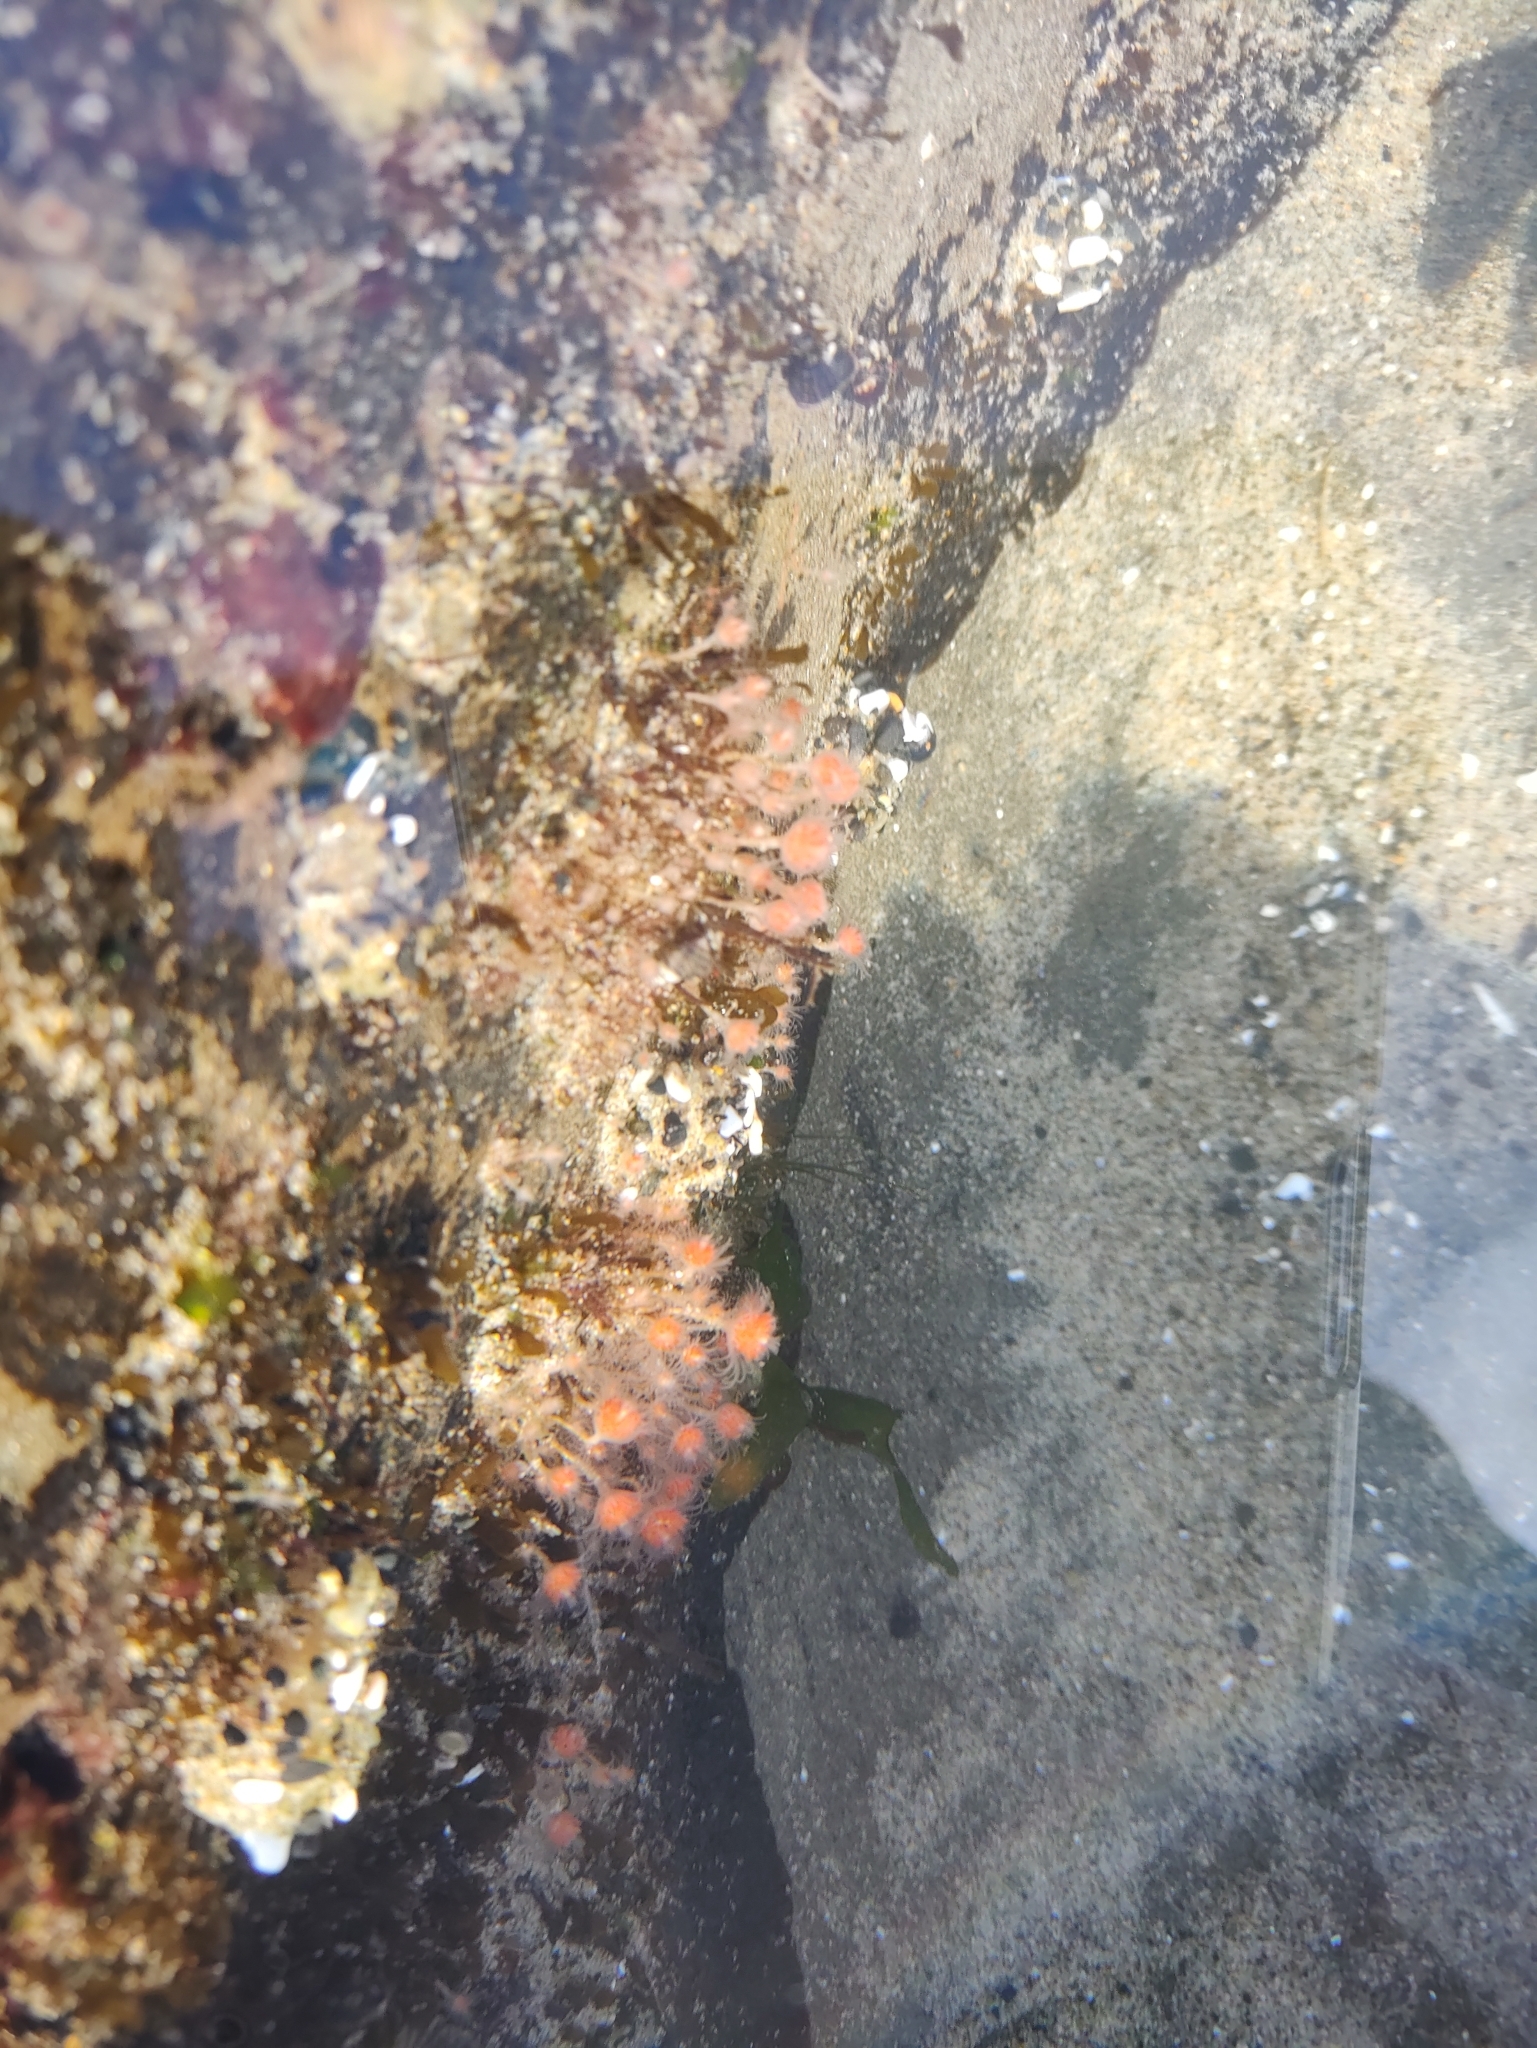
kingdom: Animalia
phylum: Cnidaria
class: Hydrozoa
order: Anthoathecata
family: Tubulariidae
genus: Ectopleura
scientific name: Ectopleura marina
